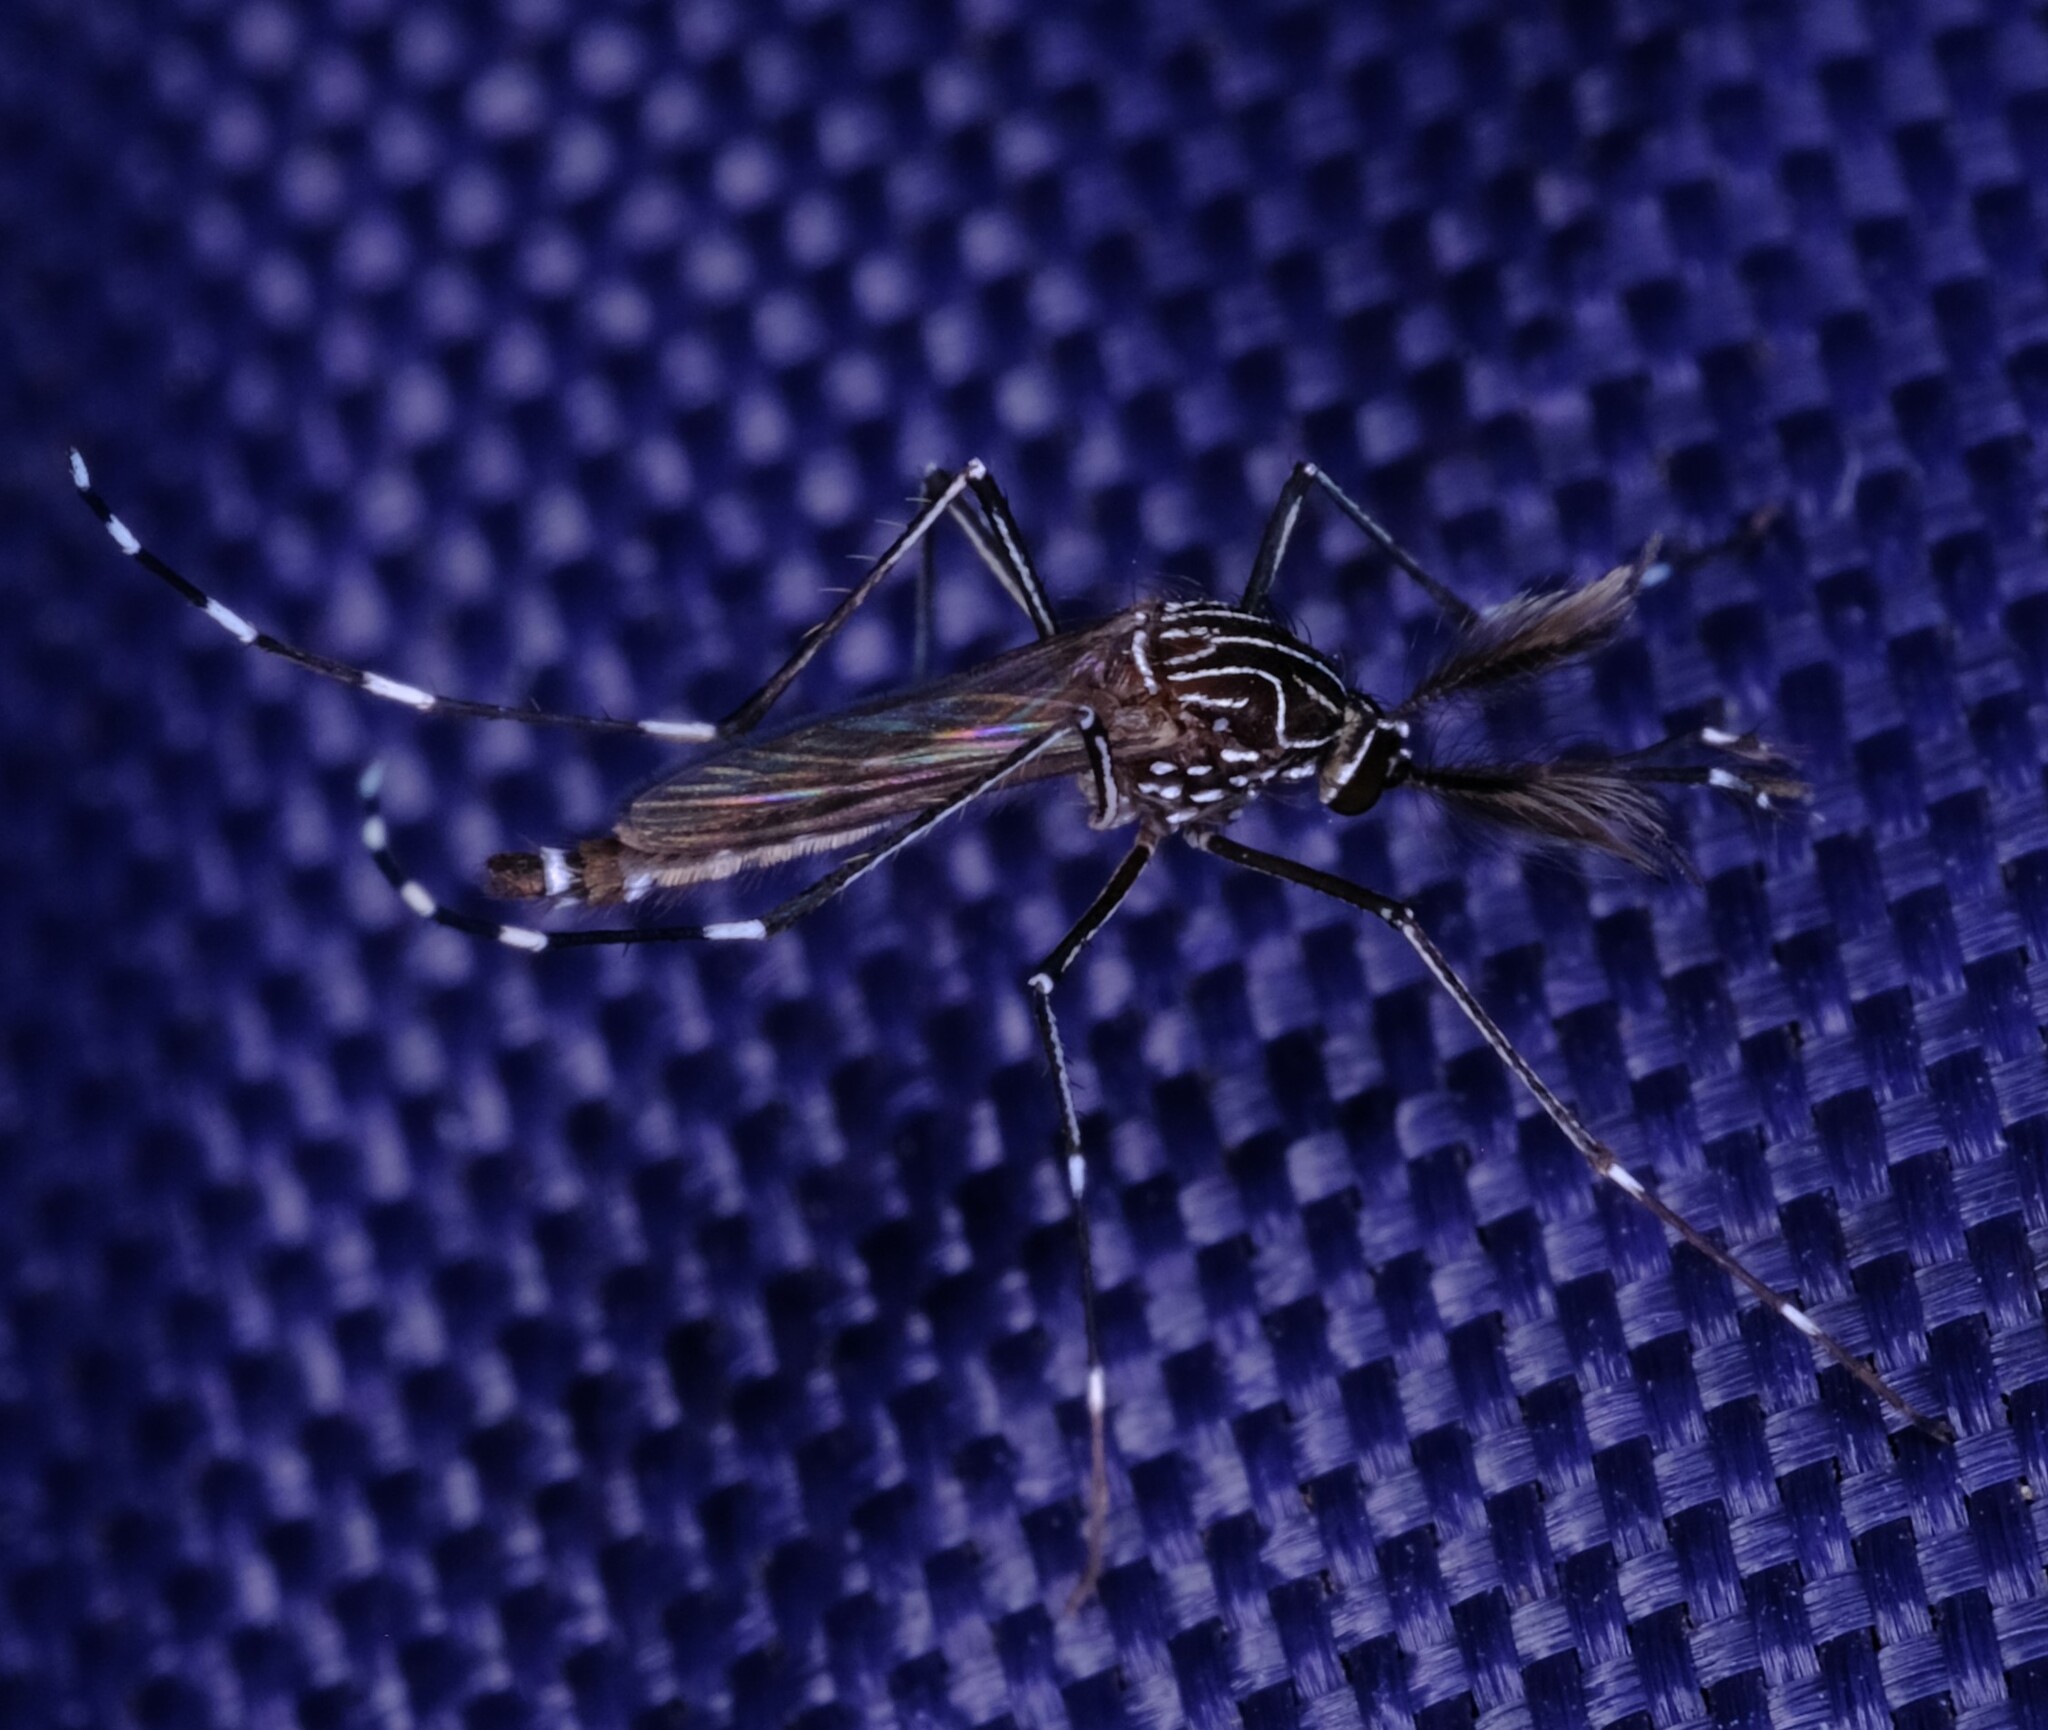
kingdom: Animalia
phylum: Arthropoda
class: Insecta
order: Diptera
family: Culicidae
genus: Aedes
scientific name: Aedes notoscriptus
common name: Australian backyard mosquito
